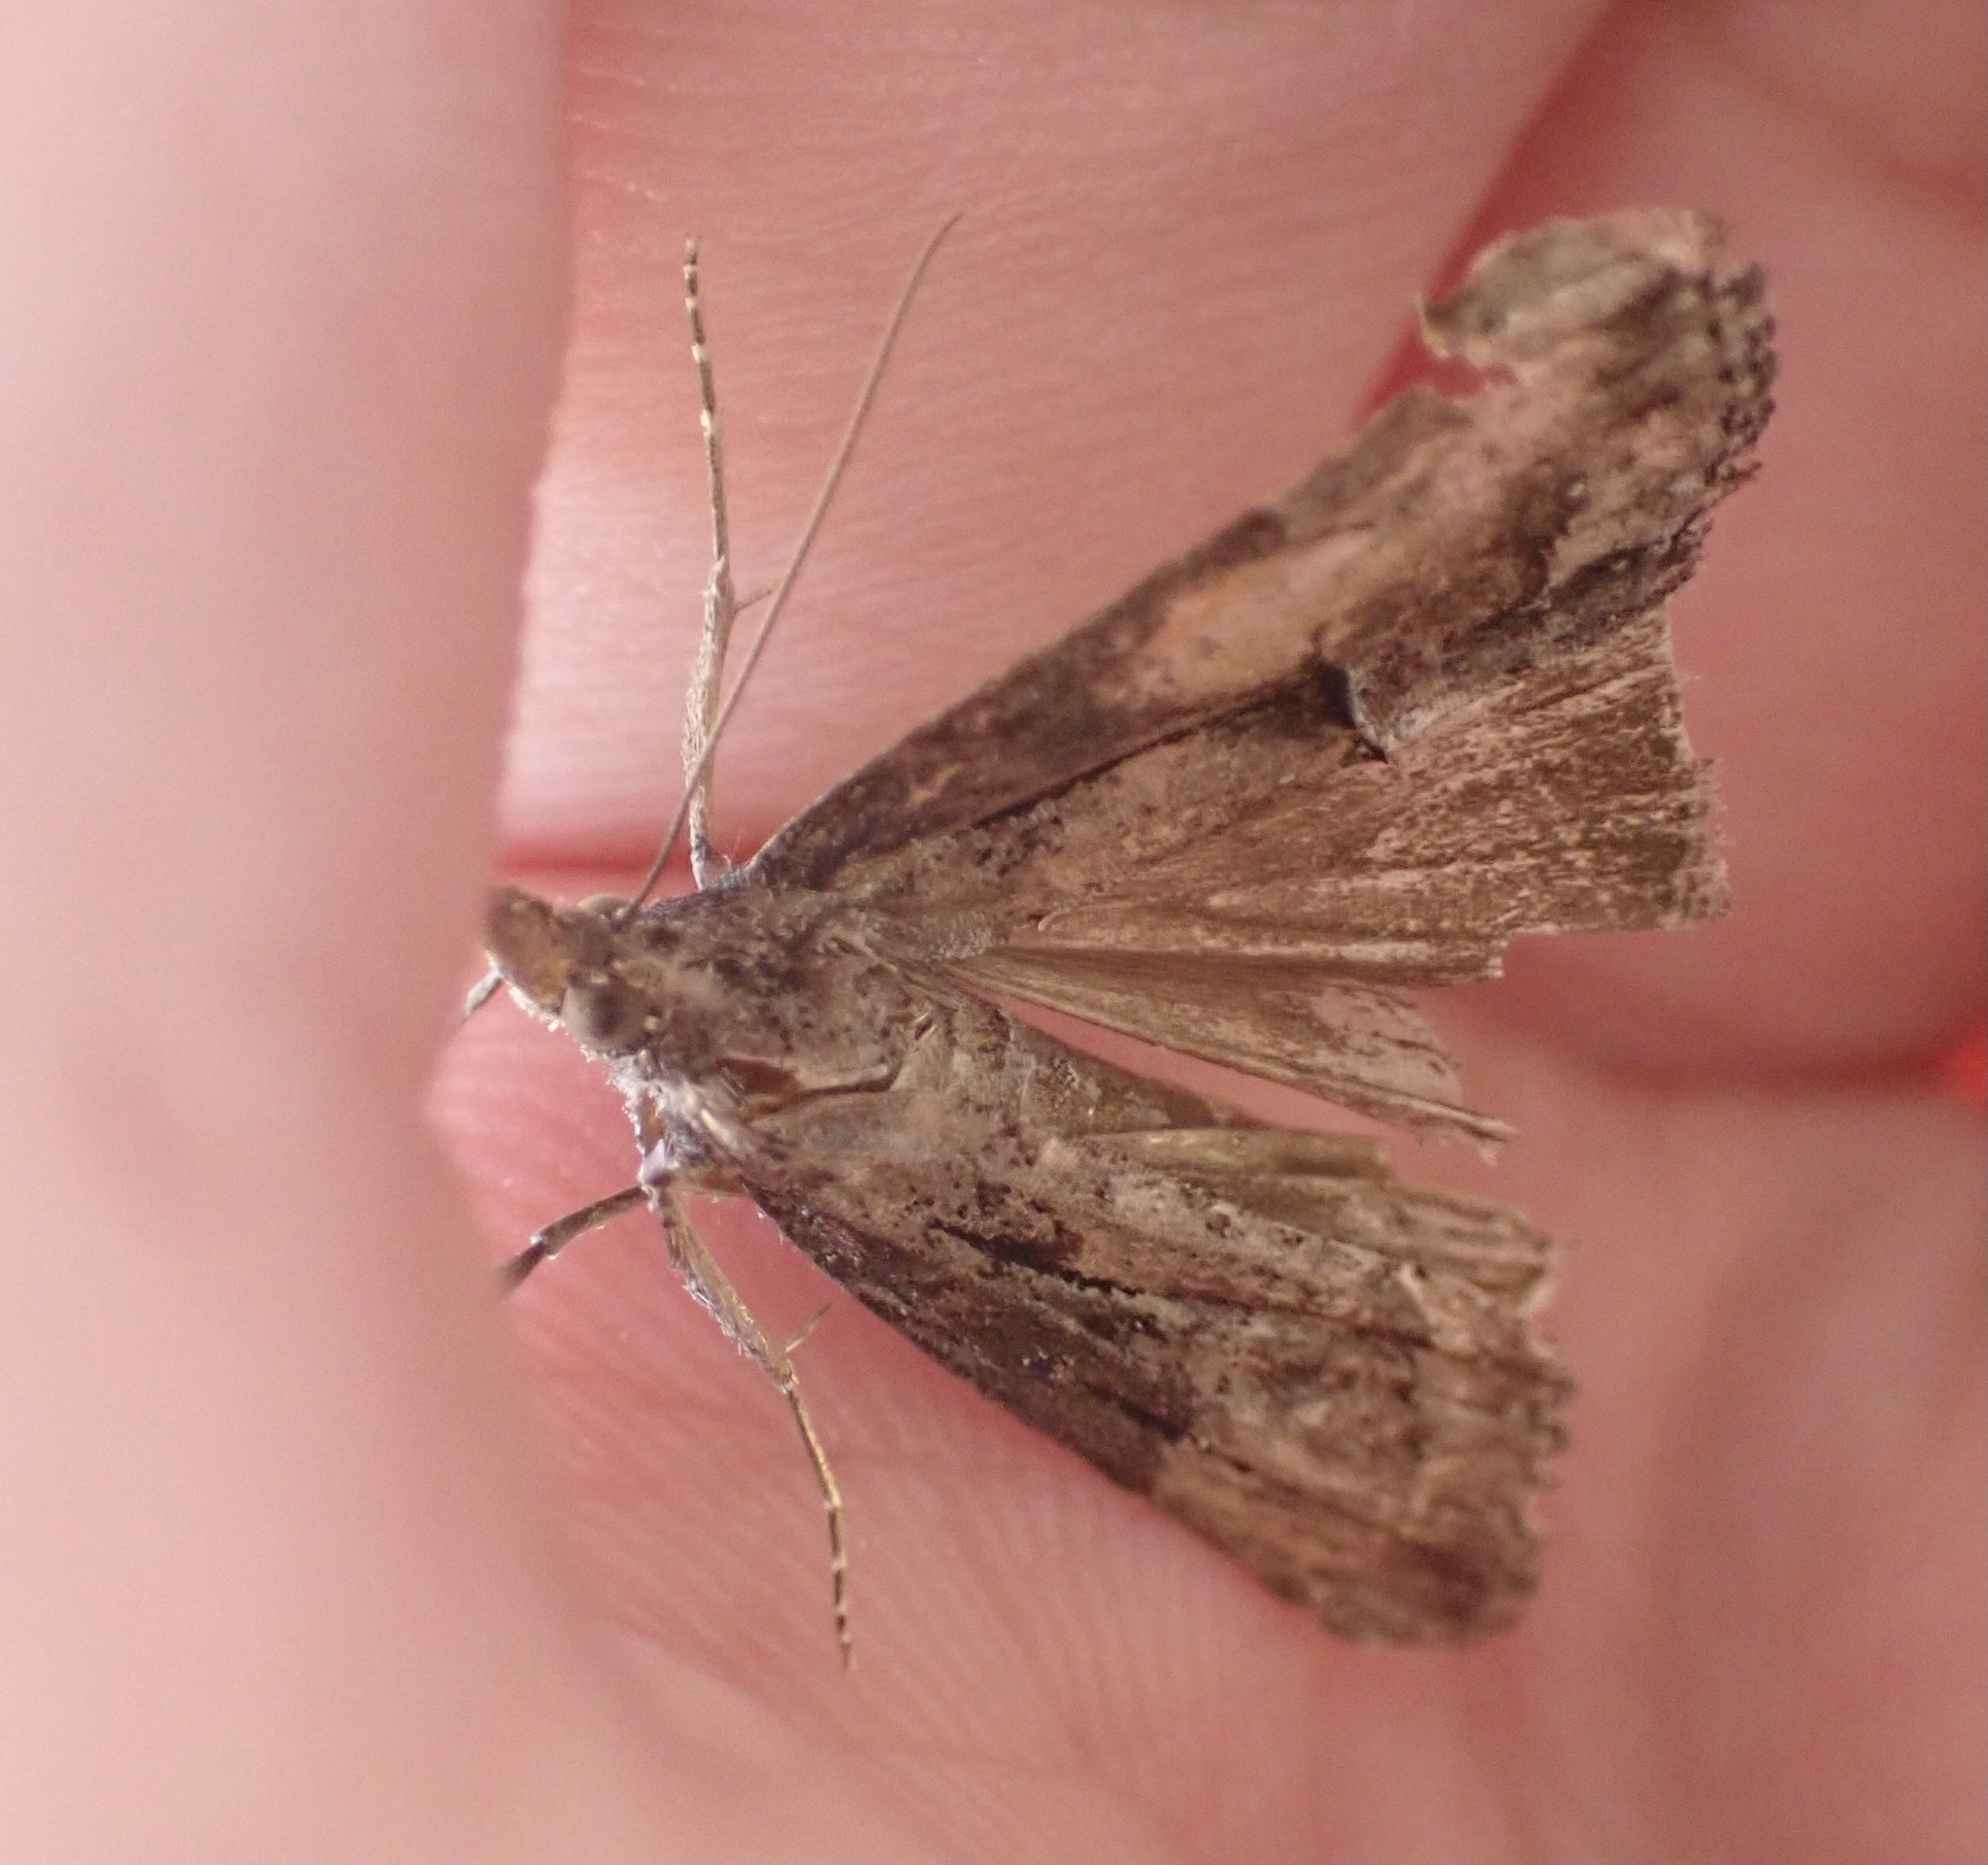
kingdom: Animalia
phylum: Arthropoda
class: Insecta
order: Lepidoptera
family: Erebidae
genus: Hypena
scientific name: Hypena scabra
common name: Green cloverworm
